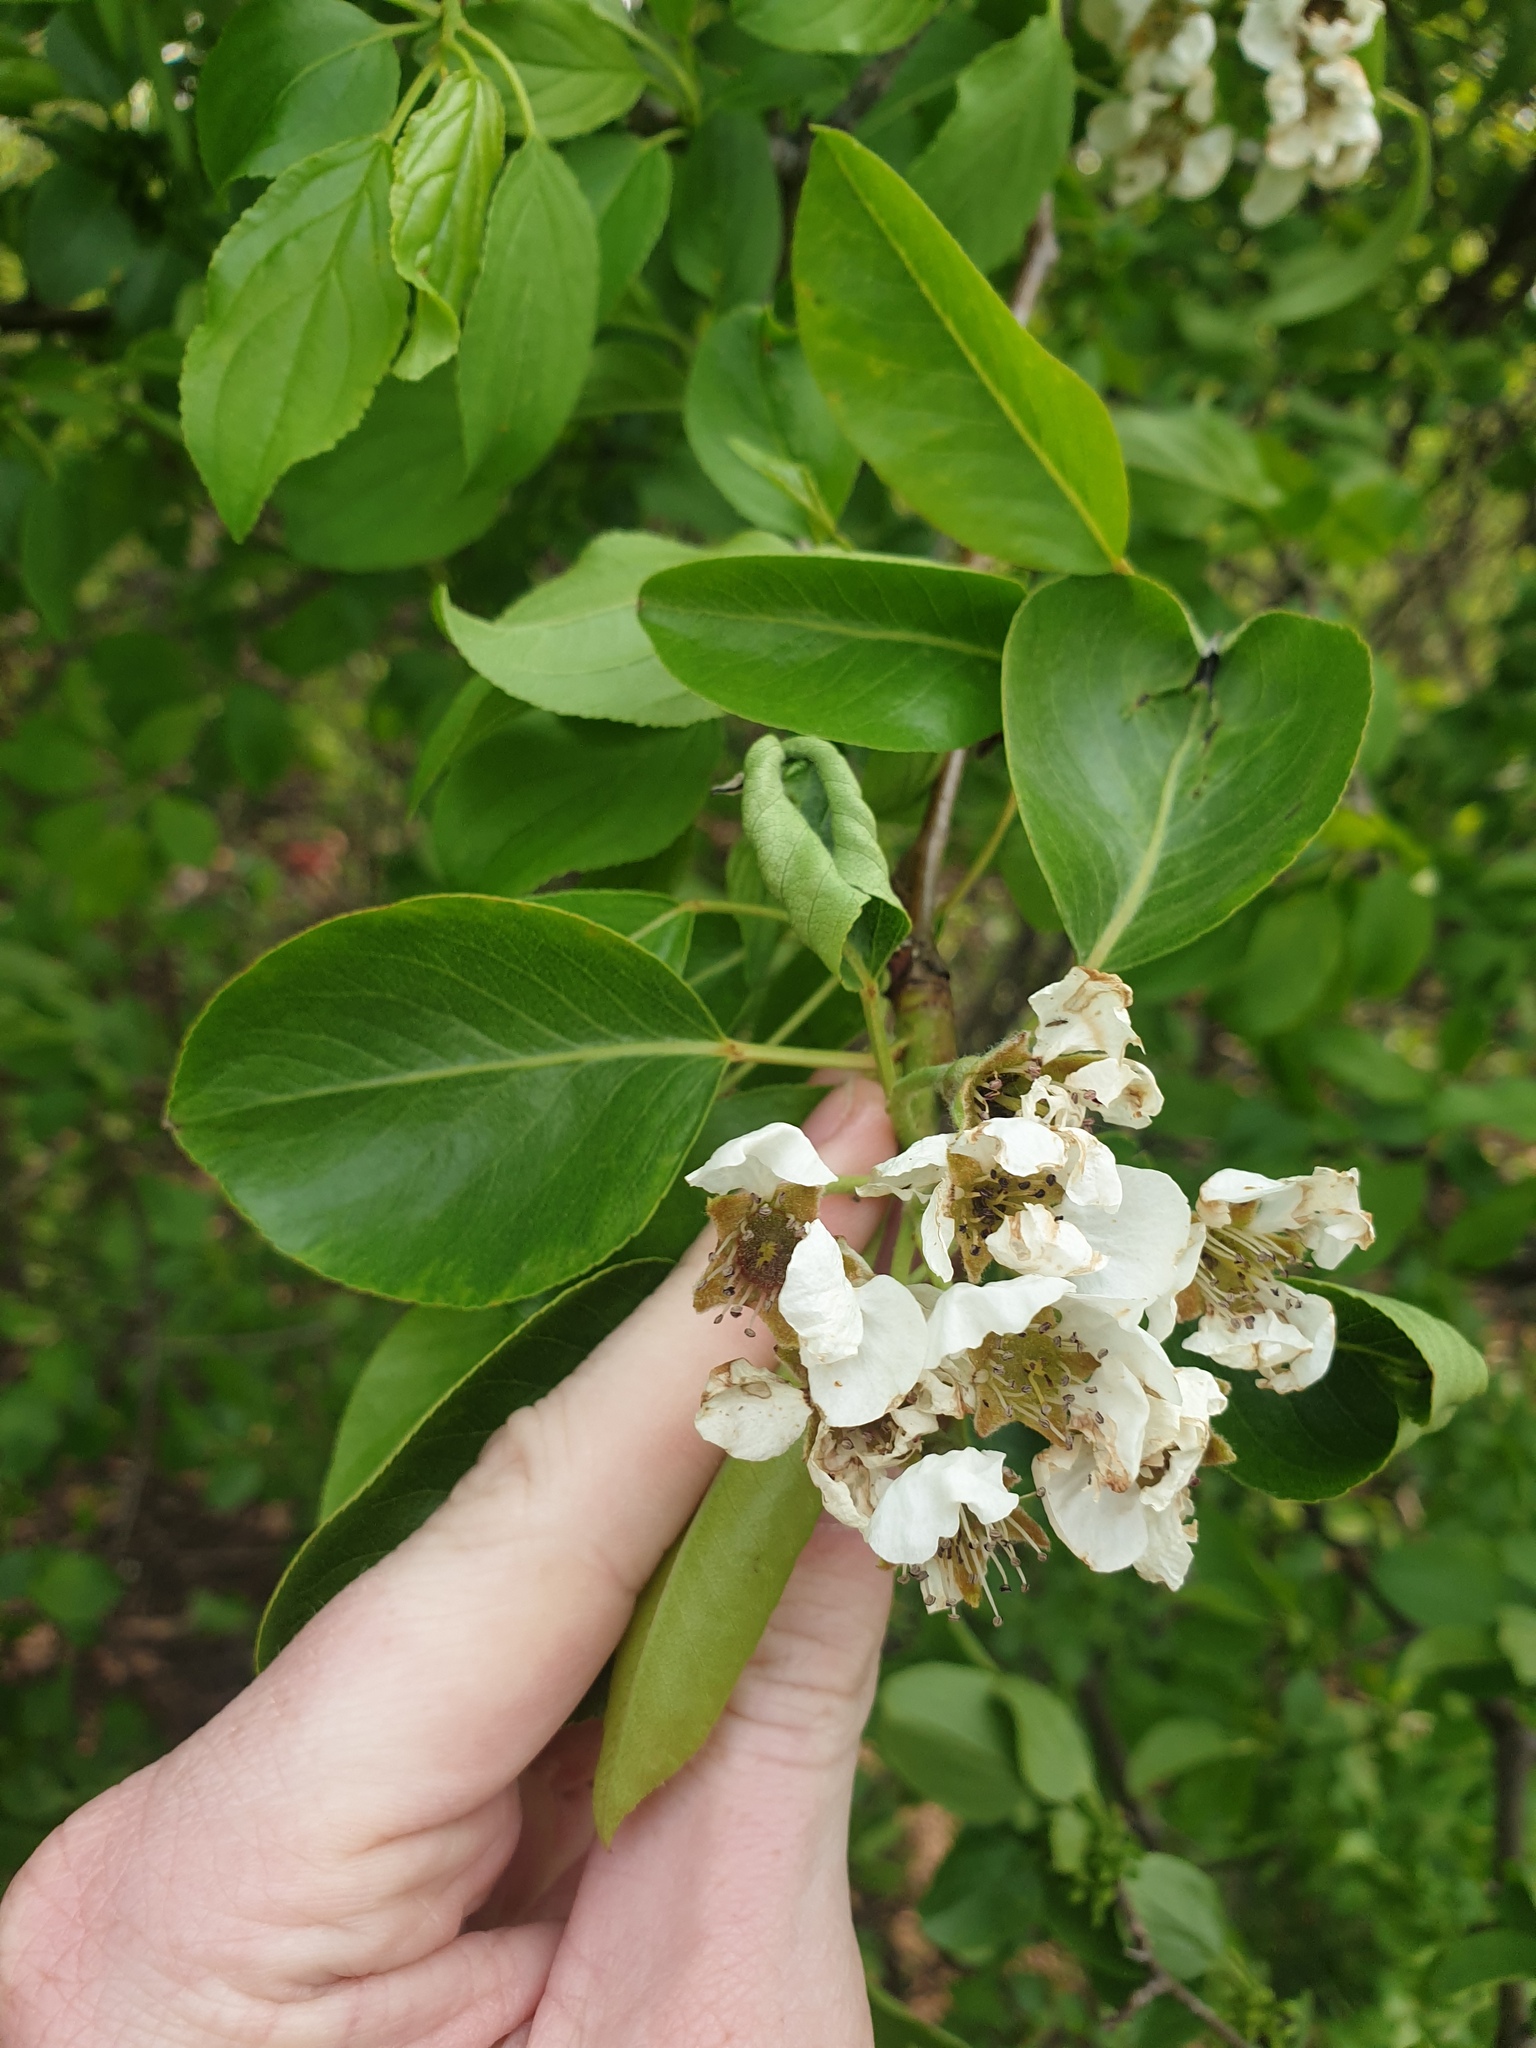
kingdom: Plantae
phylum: Tracheophyta
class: Magnoliopsida
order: Rosales
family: Rosaceae
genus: Pyrus
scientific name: Pyrus calleryana
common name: Callery pear
